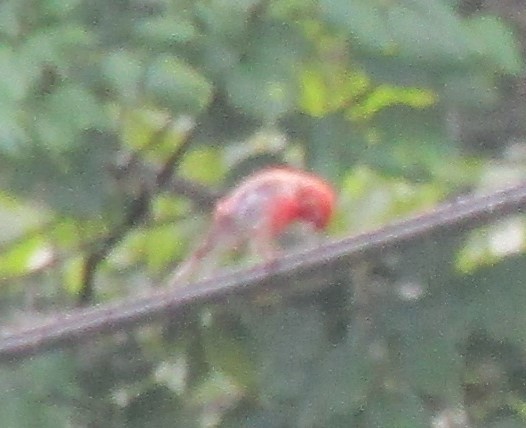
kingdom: Animalia
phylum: Chordata
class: Aves
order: Passeriformes
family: Fringillidae
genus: Haemorhous
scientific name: Haemorhous mexicanus
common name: House finch
